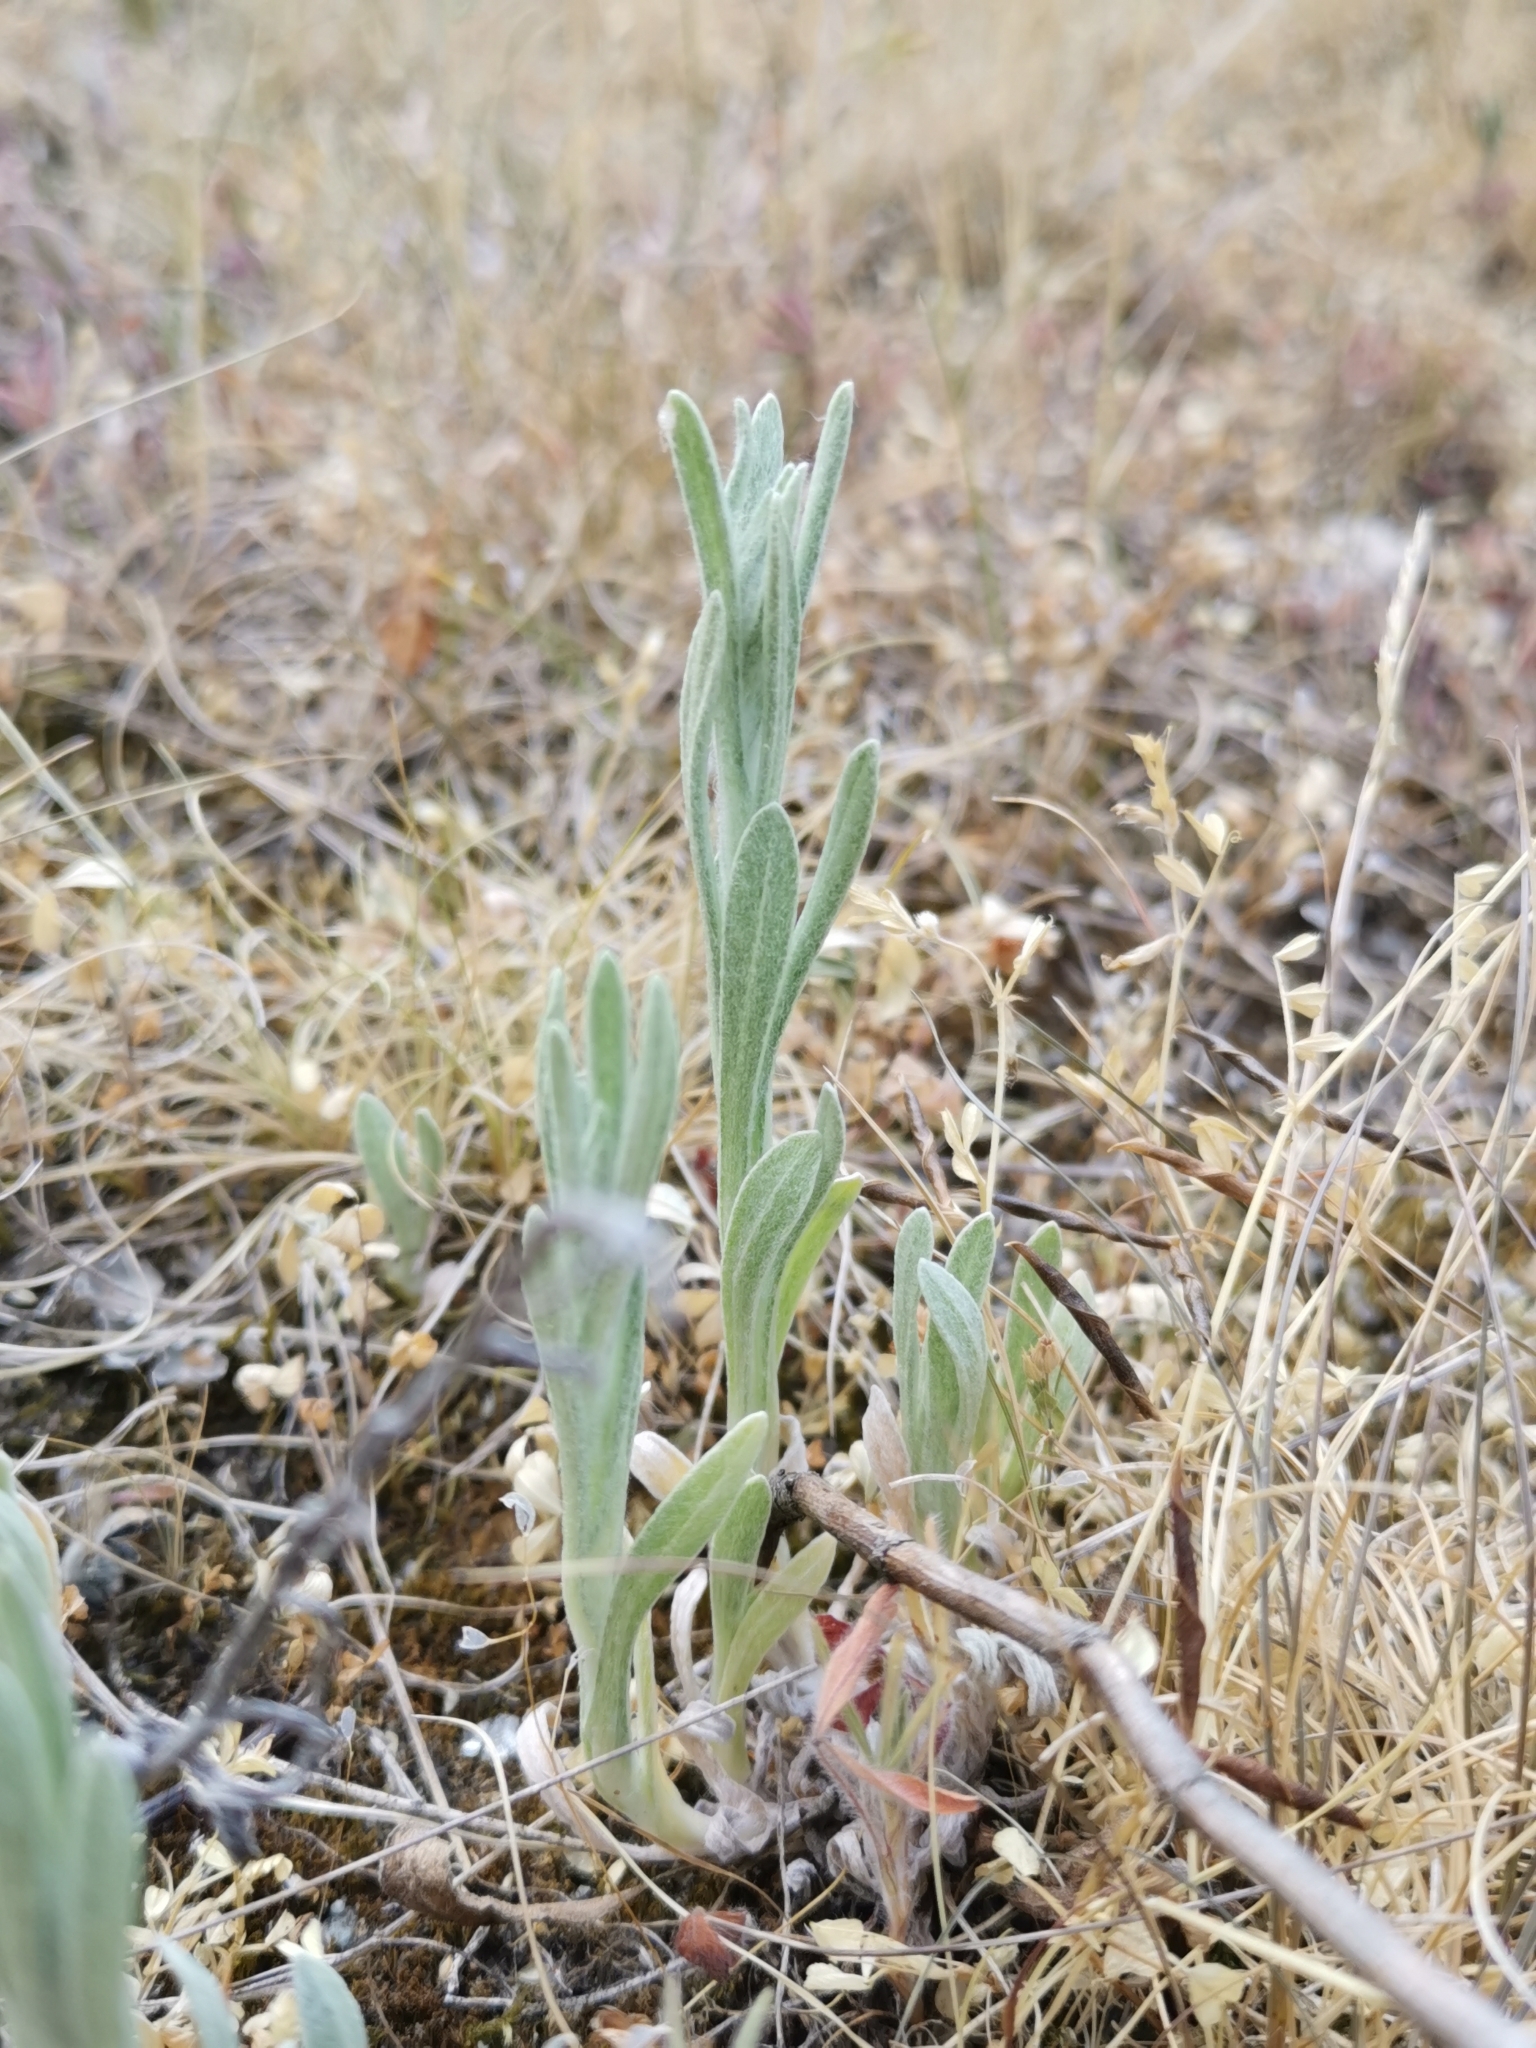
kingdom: Plantae
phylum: Tracheophyta
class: Magnoliopsida
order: Asterales
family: Asteraceae
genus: Helichrysum
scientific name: Helichrysum arenarium
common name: Strawflower
